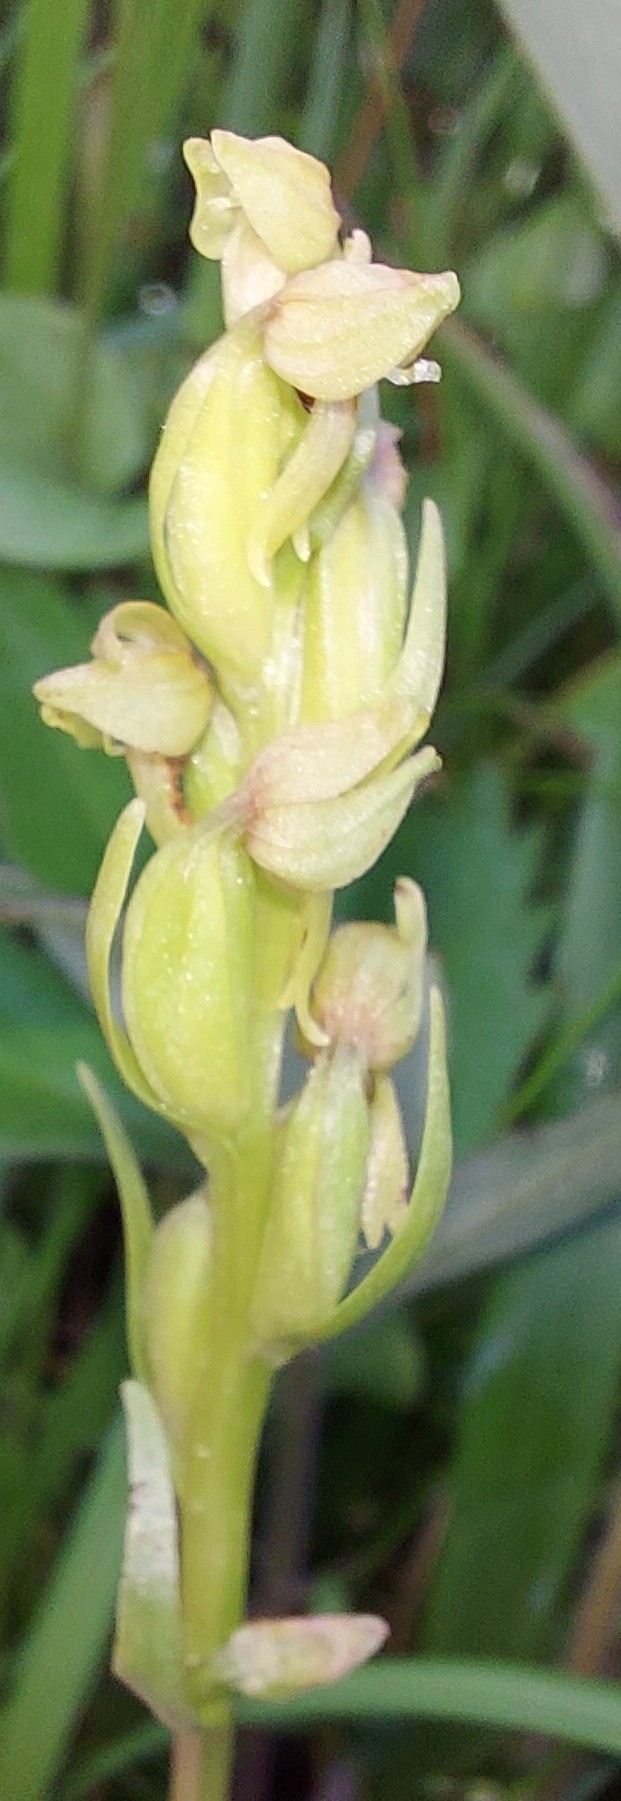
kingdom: Plantae
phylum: Tracheophyta
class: Liliopsida
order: Asparagales
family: Orchidaceae
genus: Dactylorhiza
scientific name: Dactylorhiza viridis
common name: Longbract frog orchid
